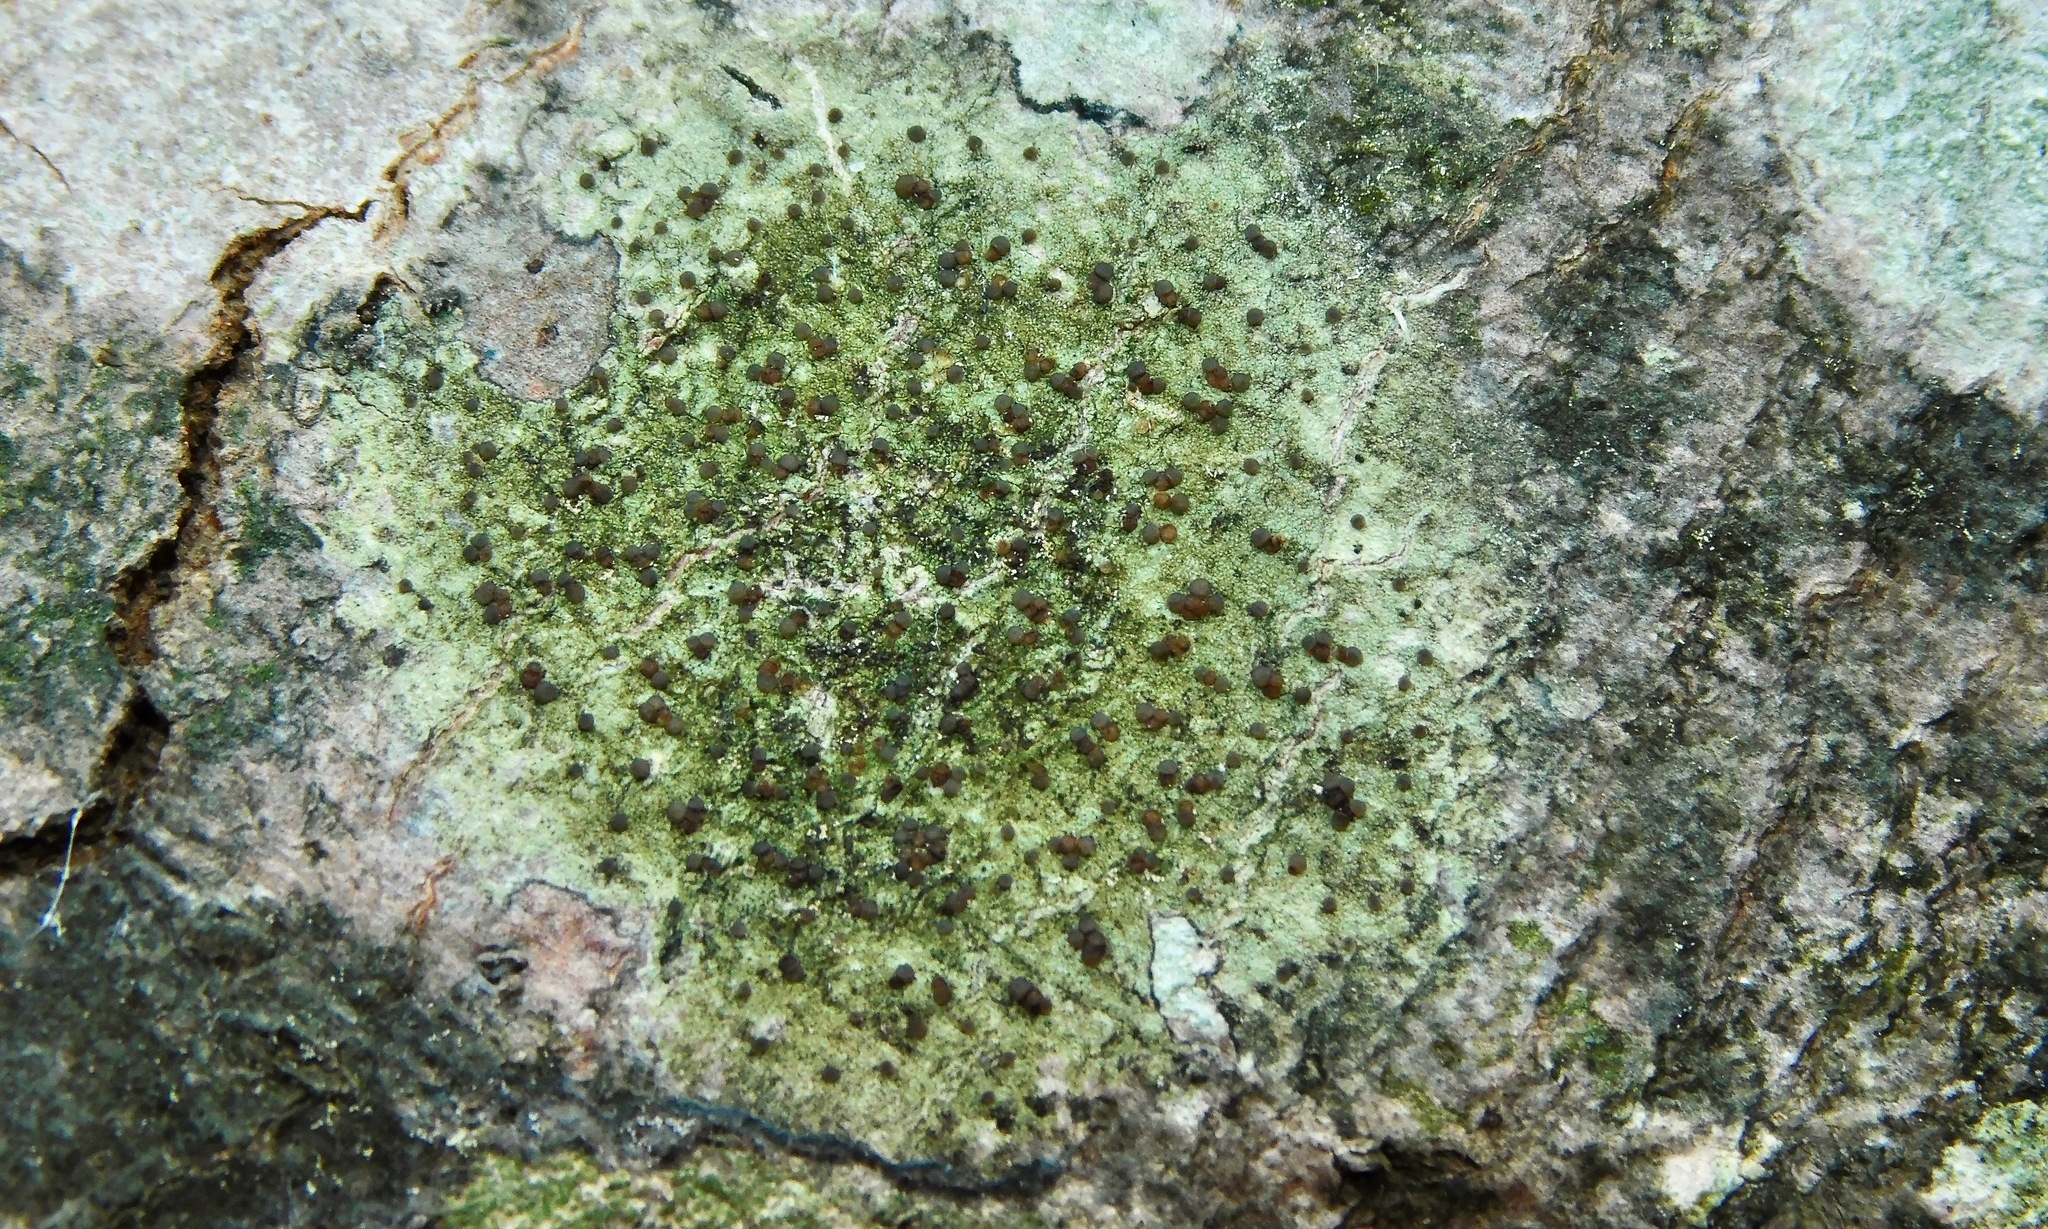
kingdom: Fungi
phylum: Ascomycota
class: Lecanoromycetes
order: Lecanorales
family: Lecanoraceae
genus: Traponora
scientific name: Traponora varians
